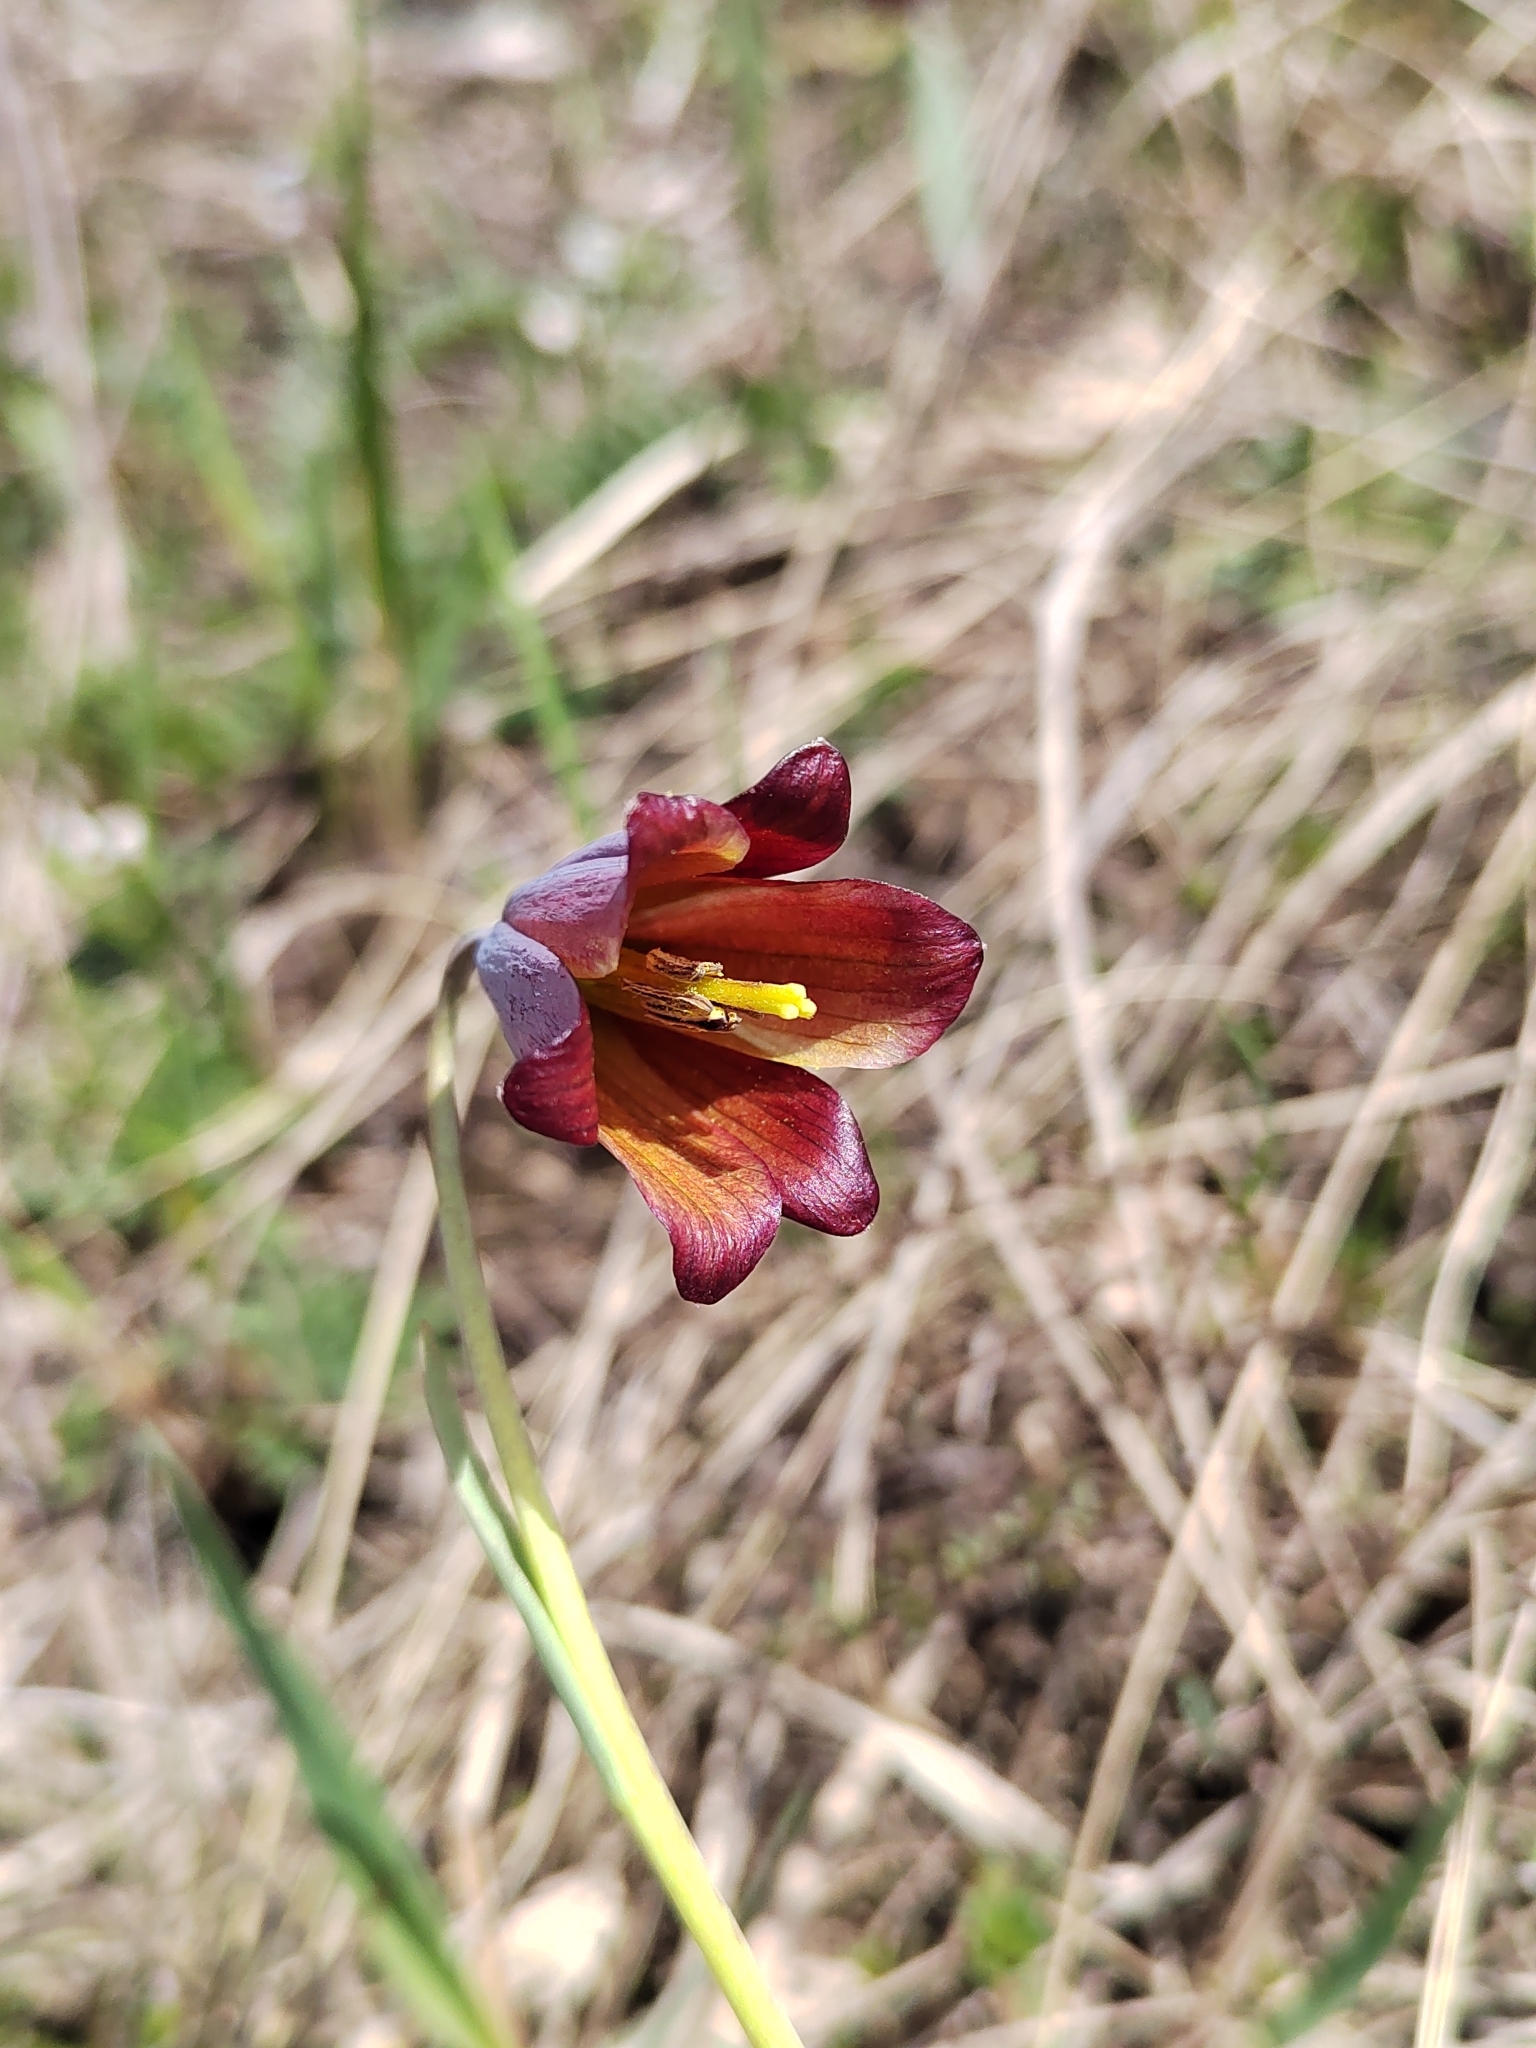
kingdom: Plantae
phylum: Tracheophyta
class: Liliopsida
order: Liliales
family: Liliaceae
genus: Fritillaria
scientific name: Fritillaria caucasica
